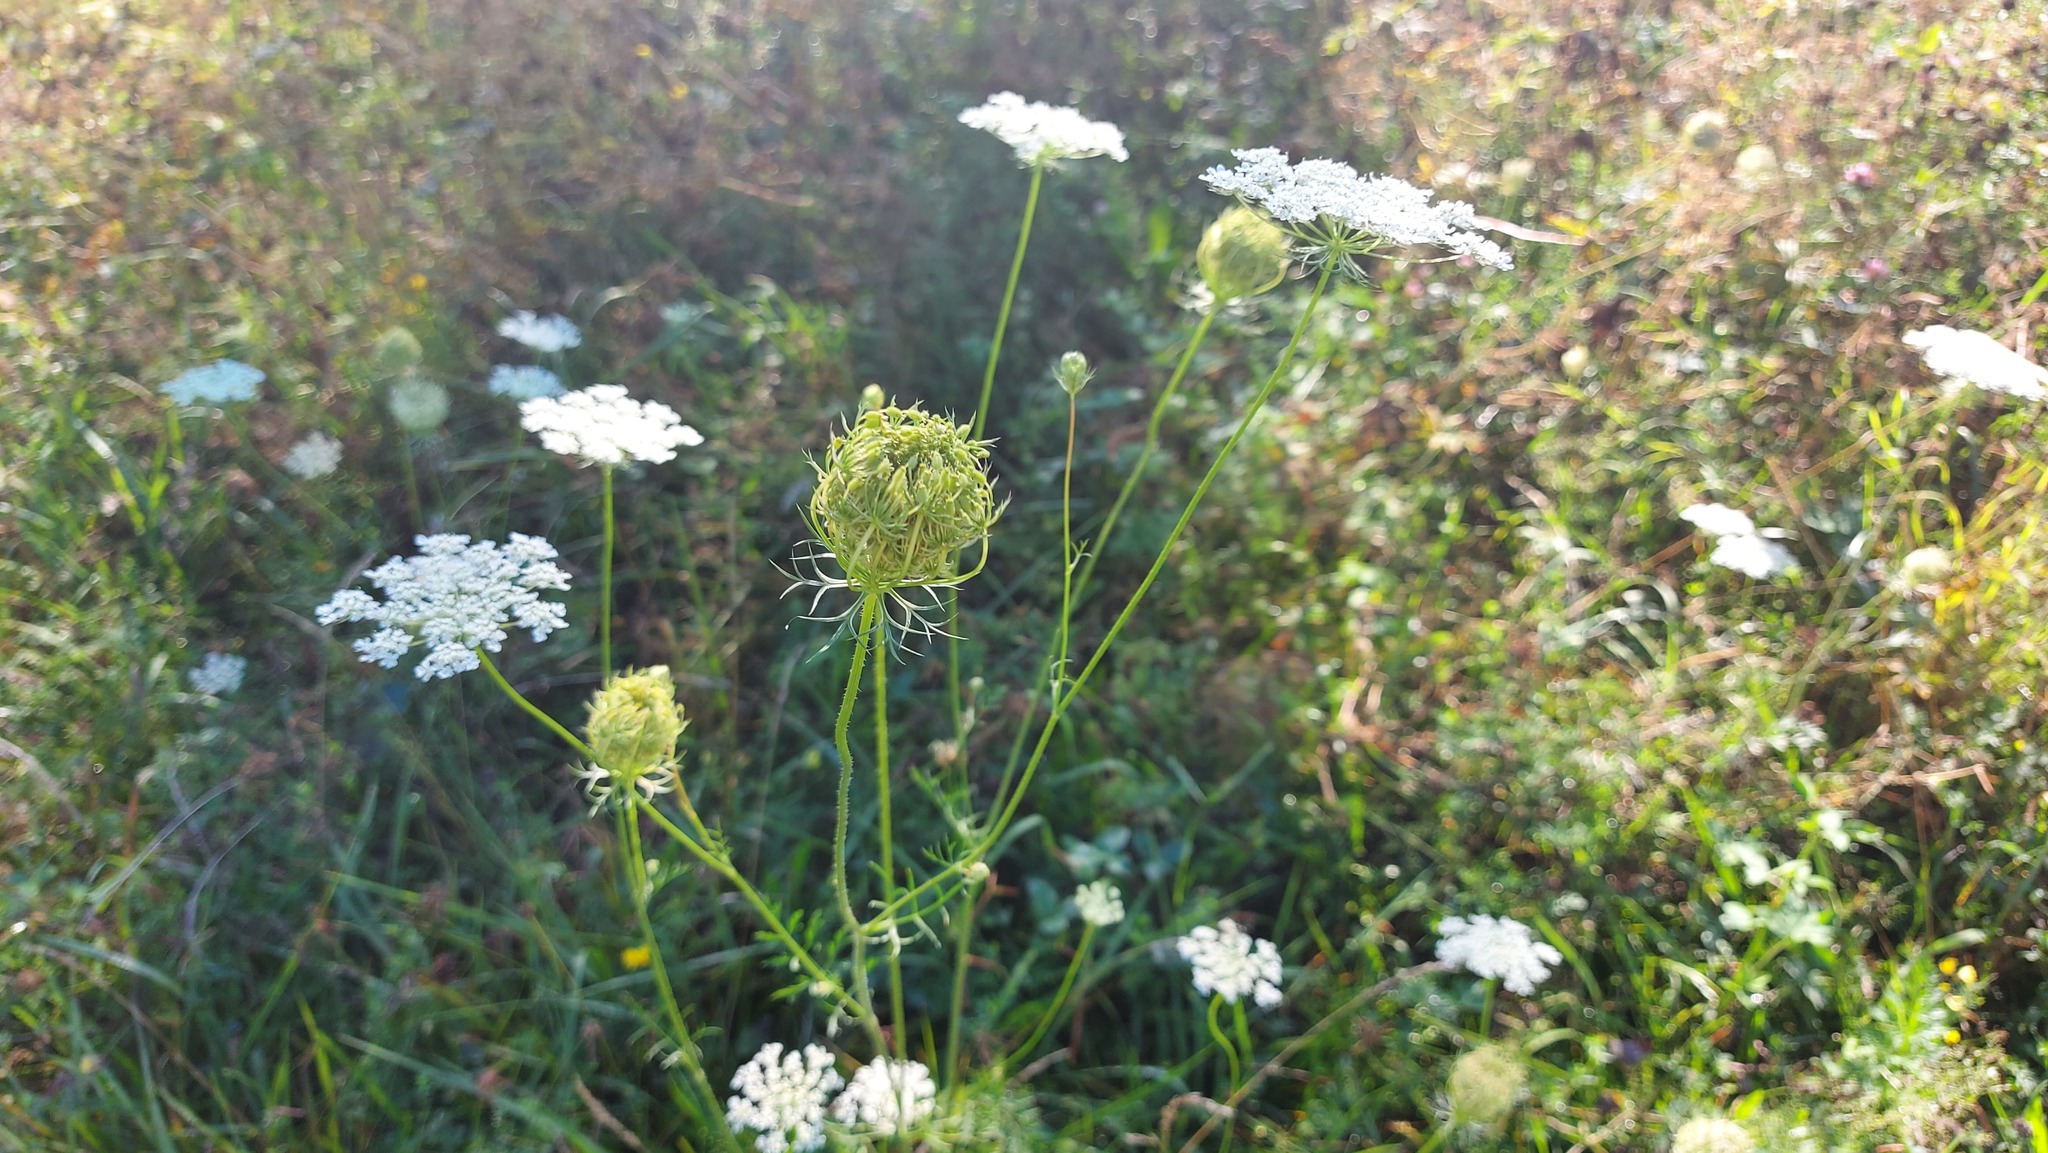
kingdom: Plantae
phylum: Tracheophyta
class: Magnoliopsida
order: Apiales
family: Apiaceae
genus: Daucus
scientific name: Daucus carota
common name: Wild carrot
